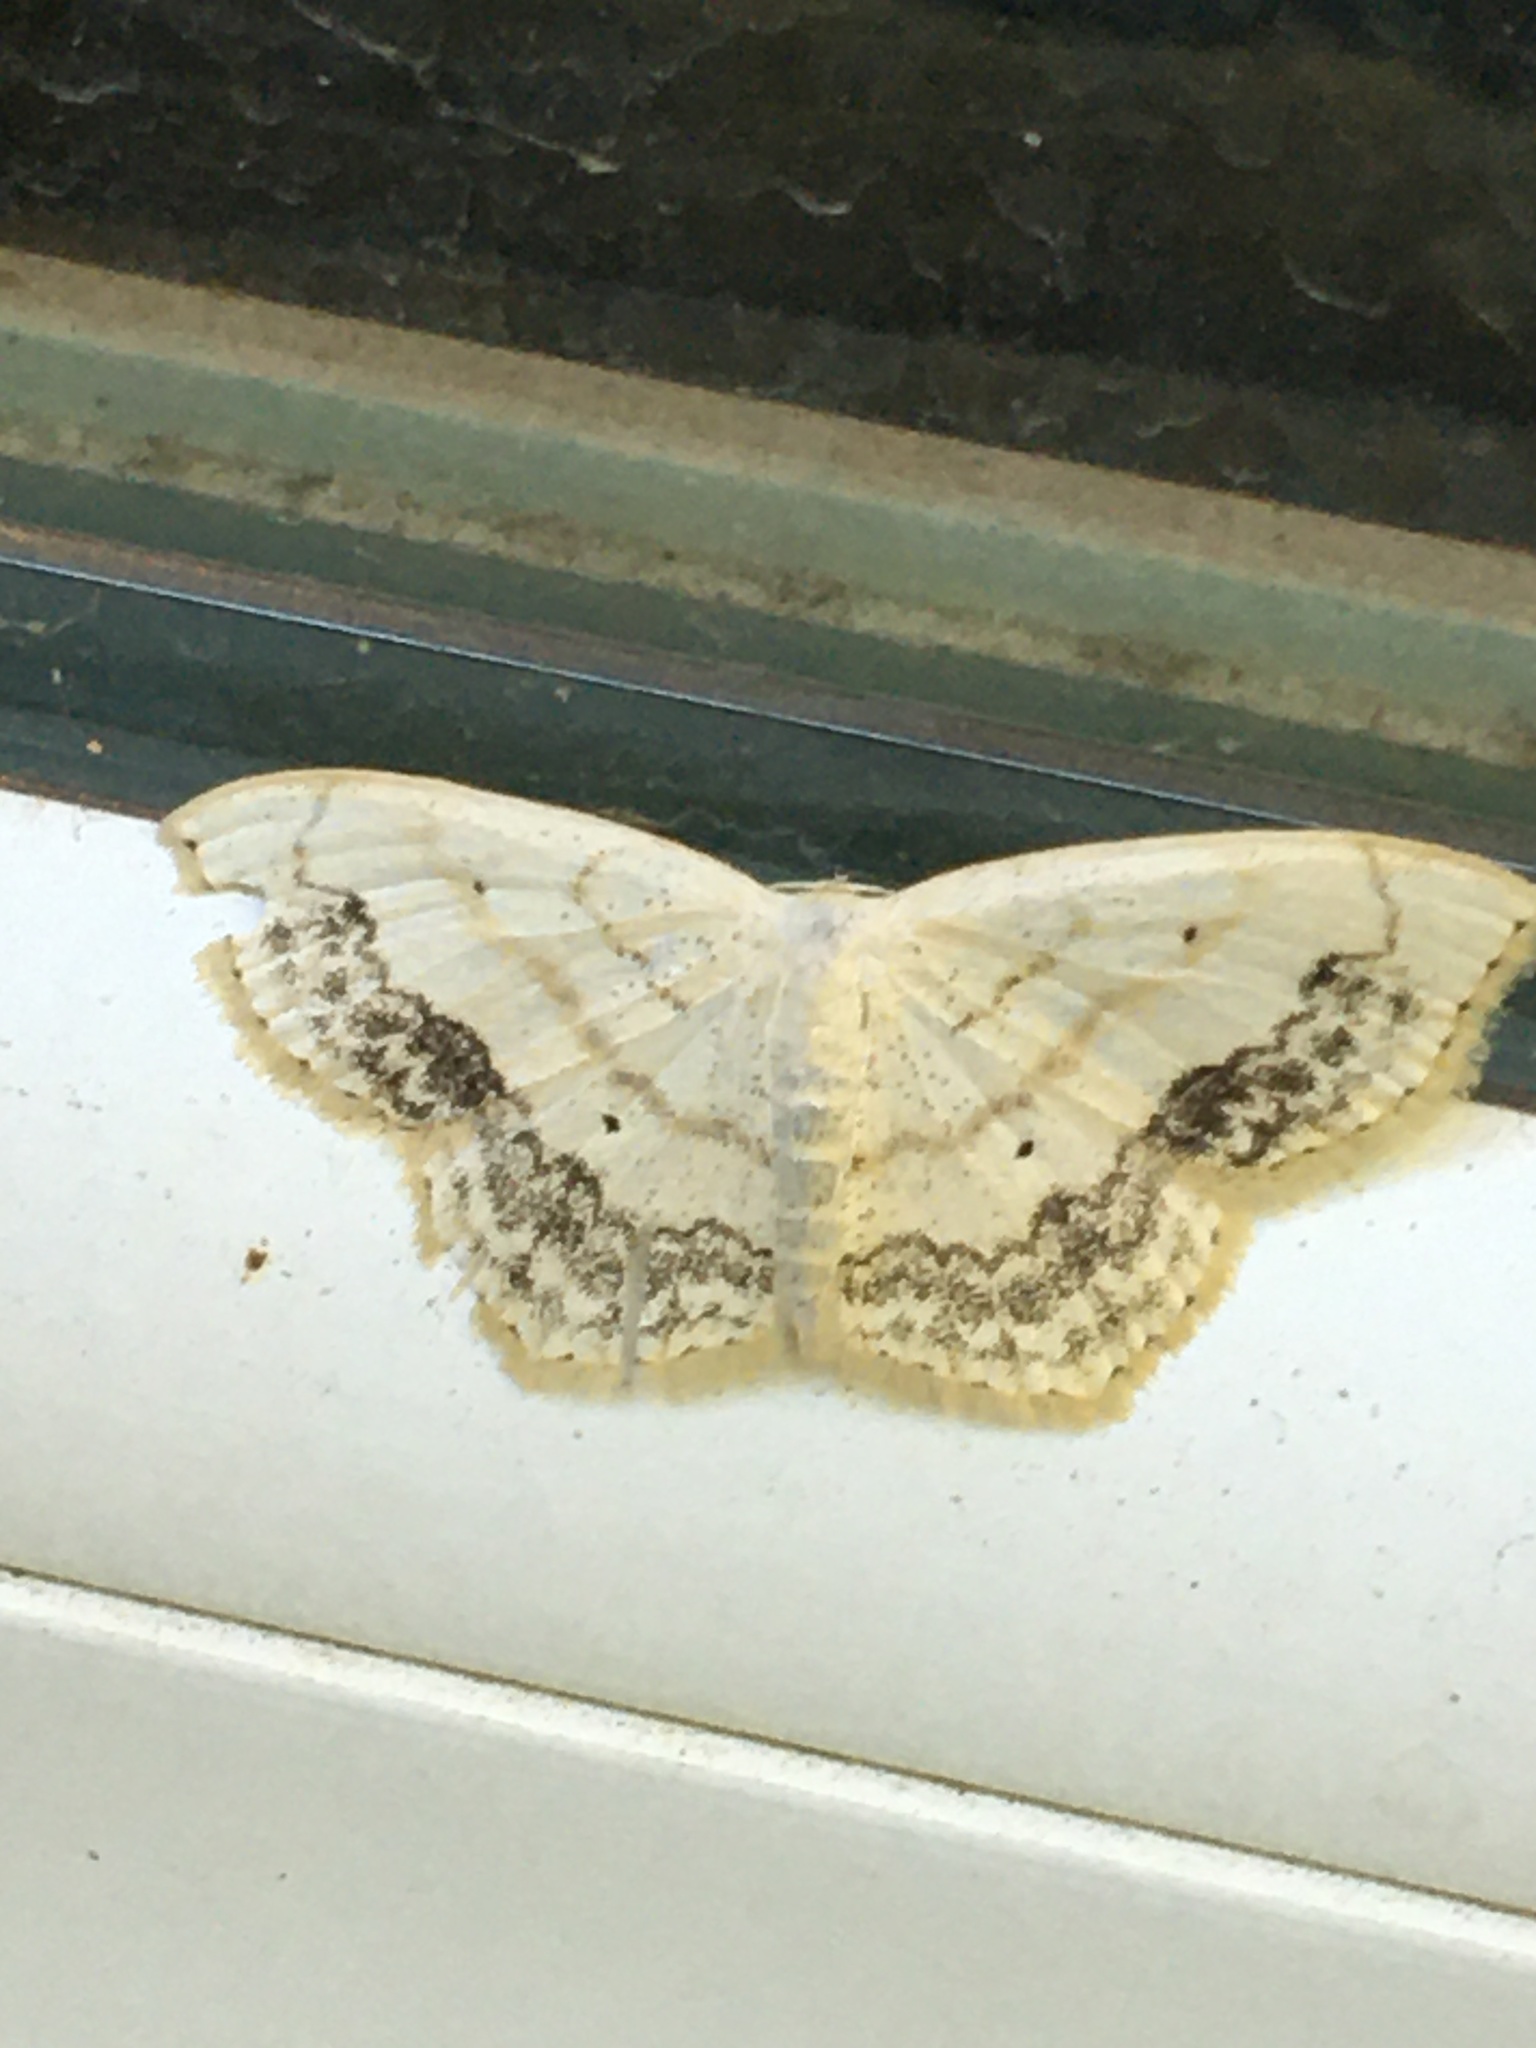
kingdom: Animalia
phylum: Arthropoda
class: Insecta
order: Lepidoptera
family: Geometridae
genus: Scopula
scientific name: Scopula limboundata
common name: Large lace border
